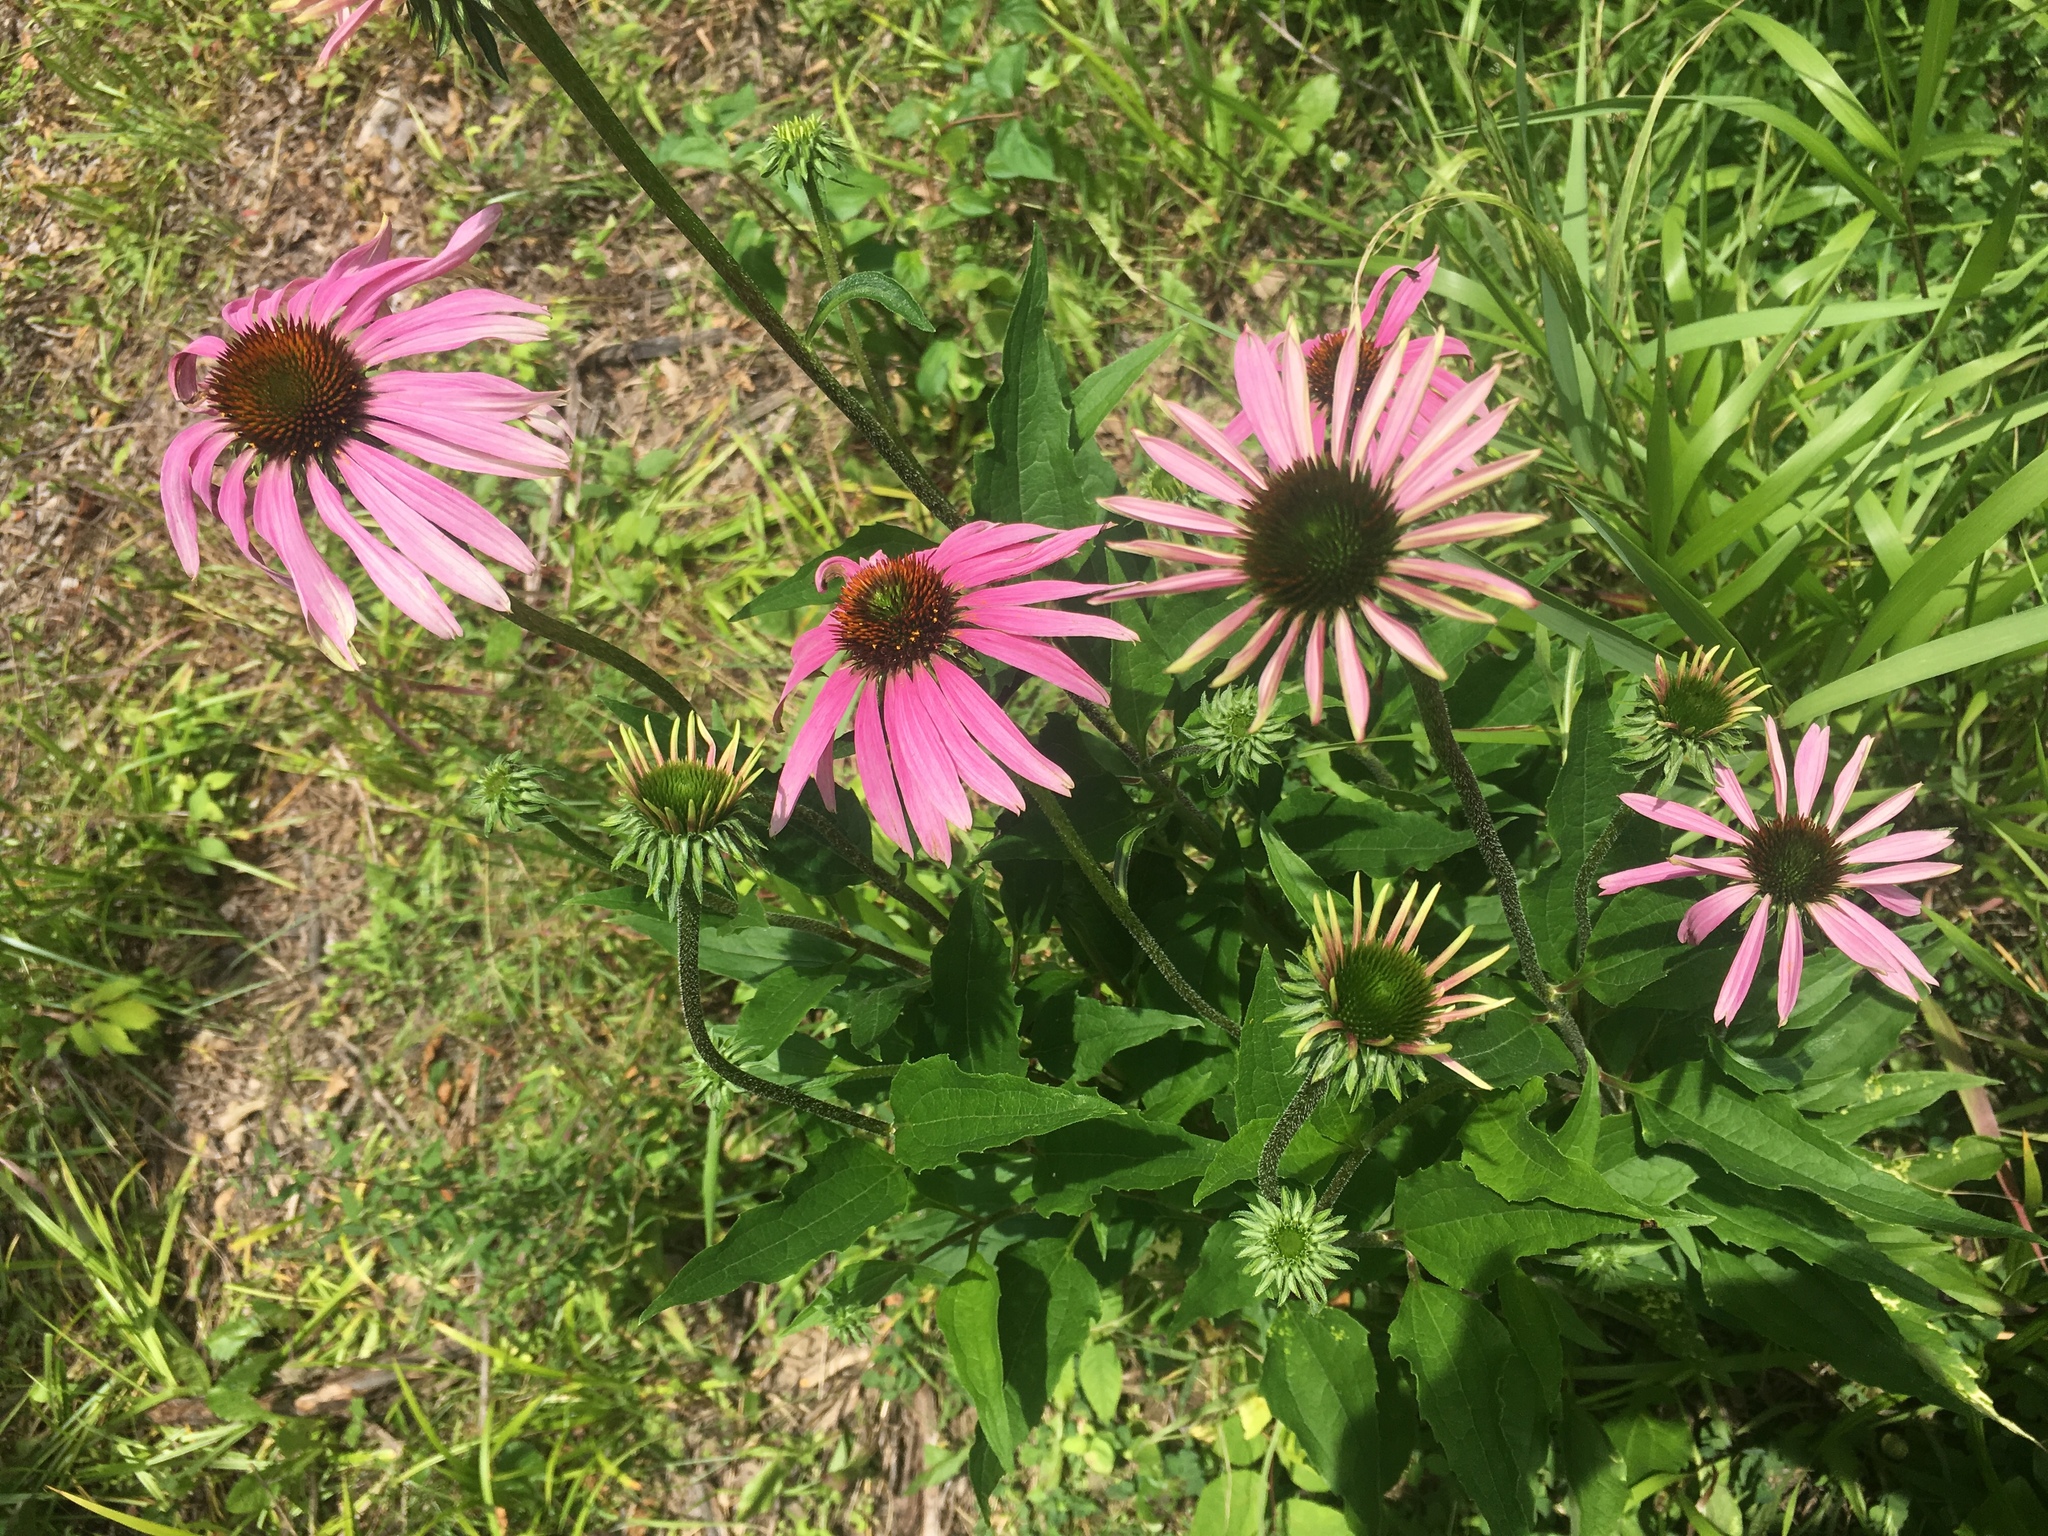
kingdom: Plantae
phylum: Tracheophyta
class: Magnoliopsida
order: Asterales
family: Asteraceae
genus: Echinacea
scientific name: Echinacea purpurea
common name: Broad-leaved purple coneflower
